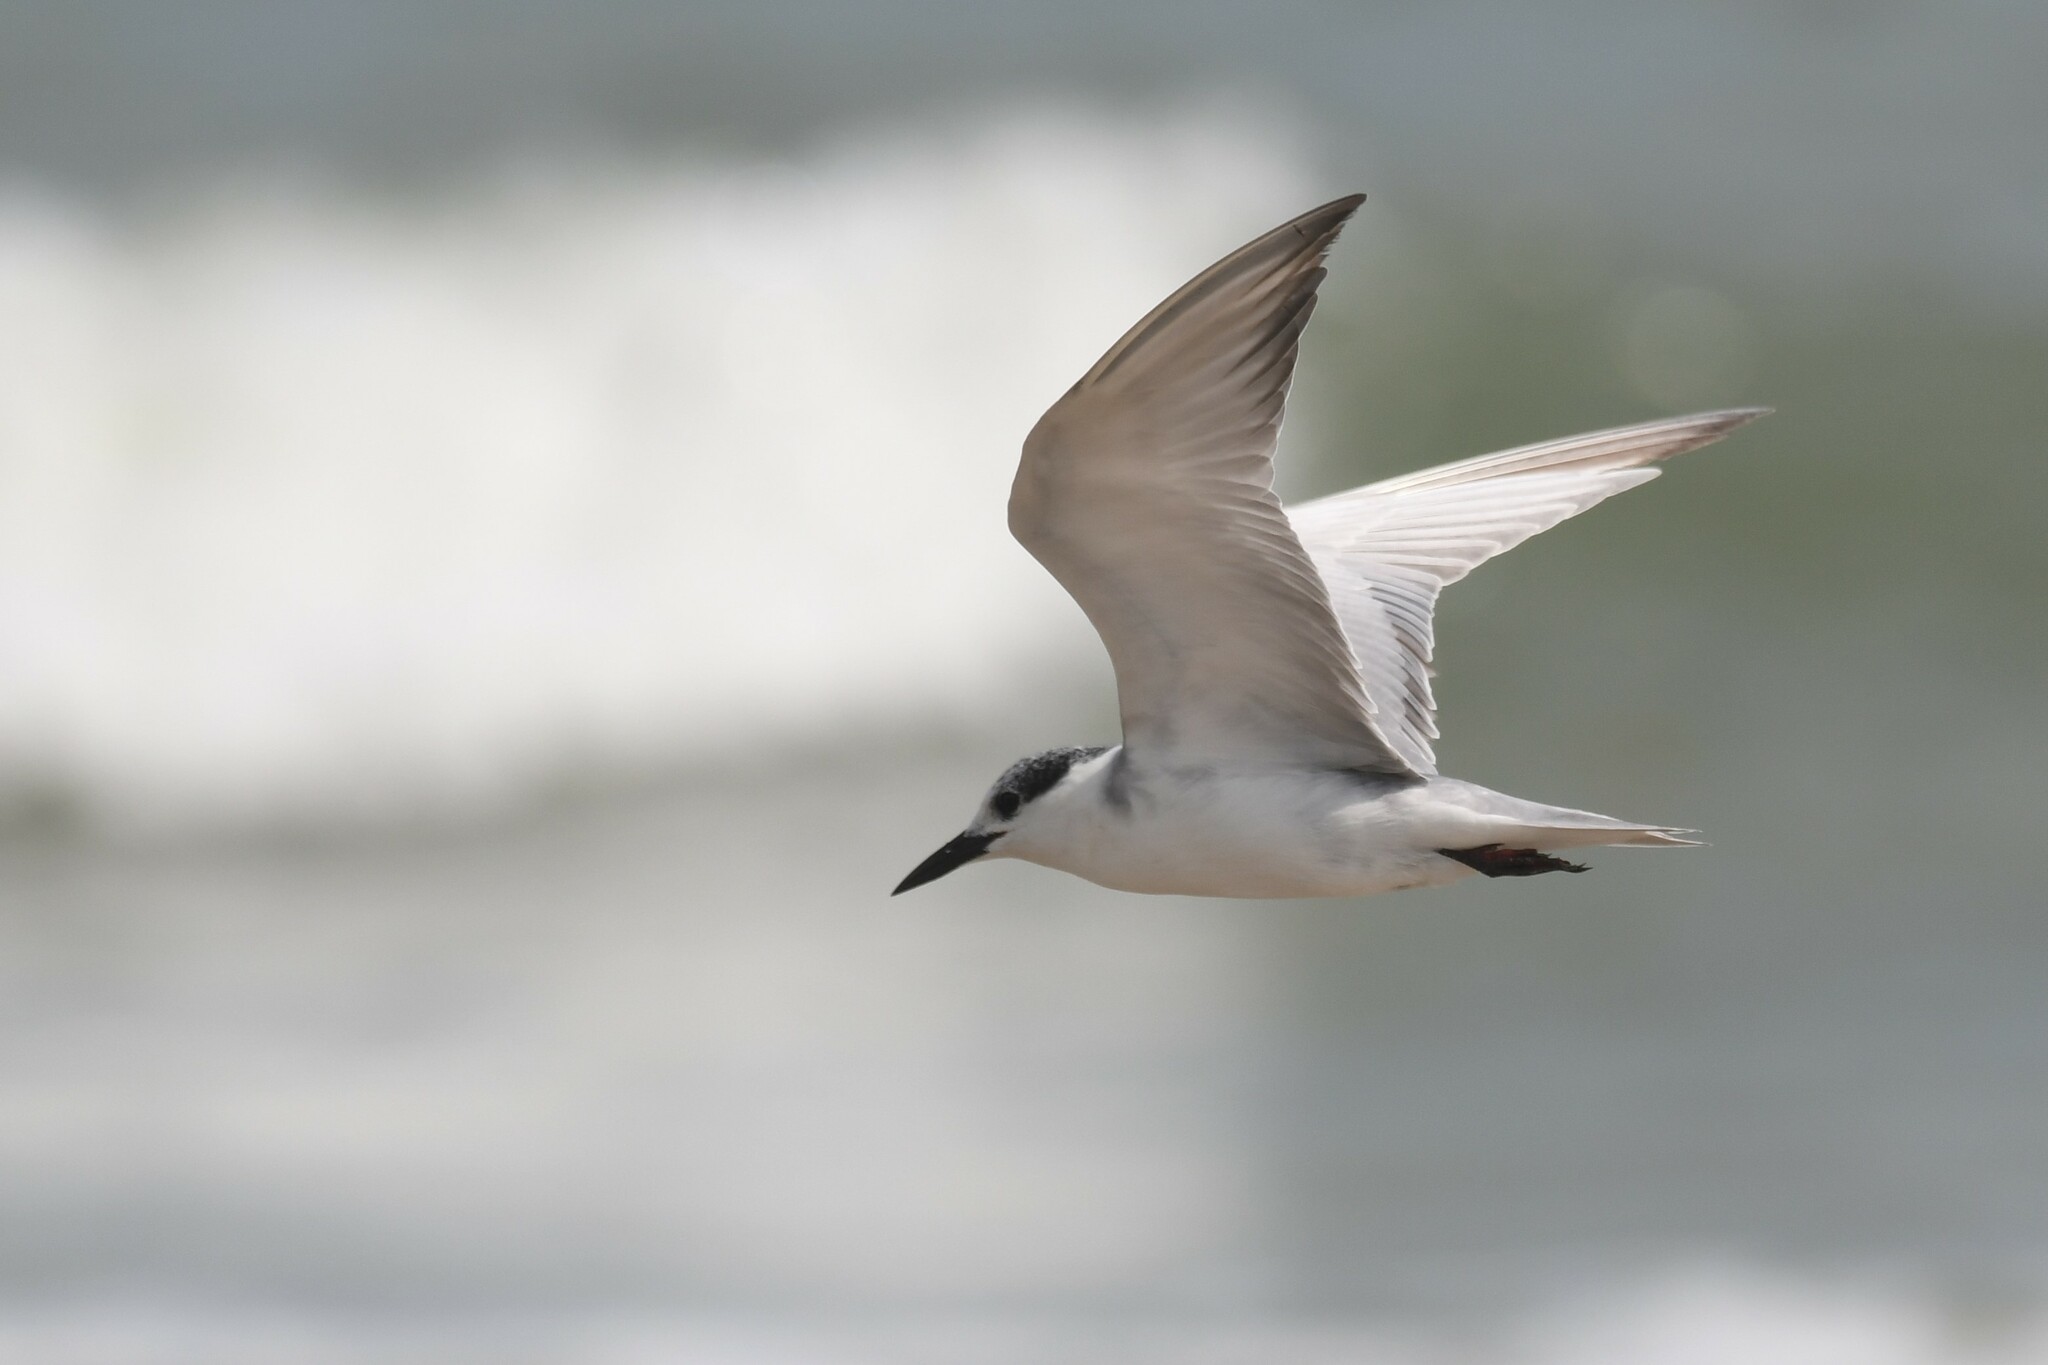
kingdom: Animalia
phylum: Chordata
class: Aves
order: Charadriiformes
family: Laridae
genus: Chlidonias
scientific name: Chlidonias hybrida
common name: Whiskered tern
